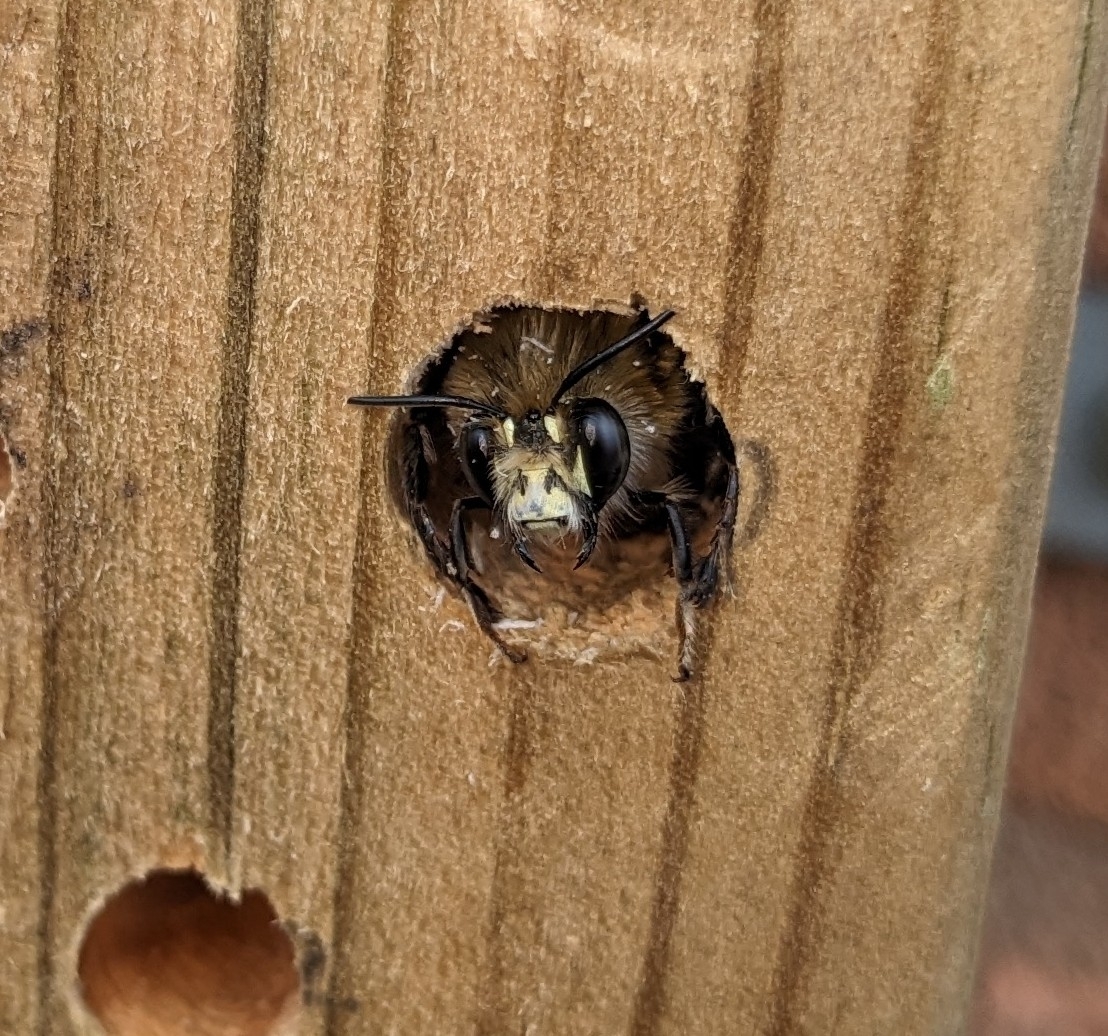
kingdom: Animalia
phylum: Arthropoda
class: Insecta
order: Hymenoptera
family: Apidae
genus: Anthophora
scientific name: Anthophora plumipes
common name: Hairy-footed flower bee
